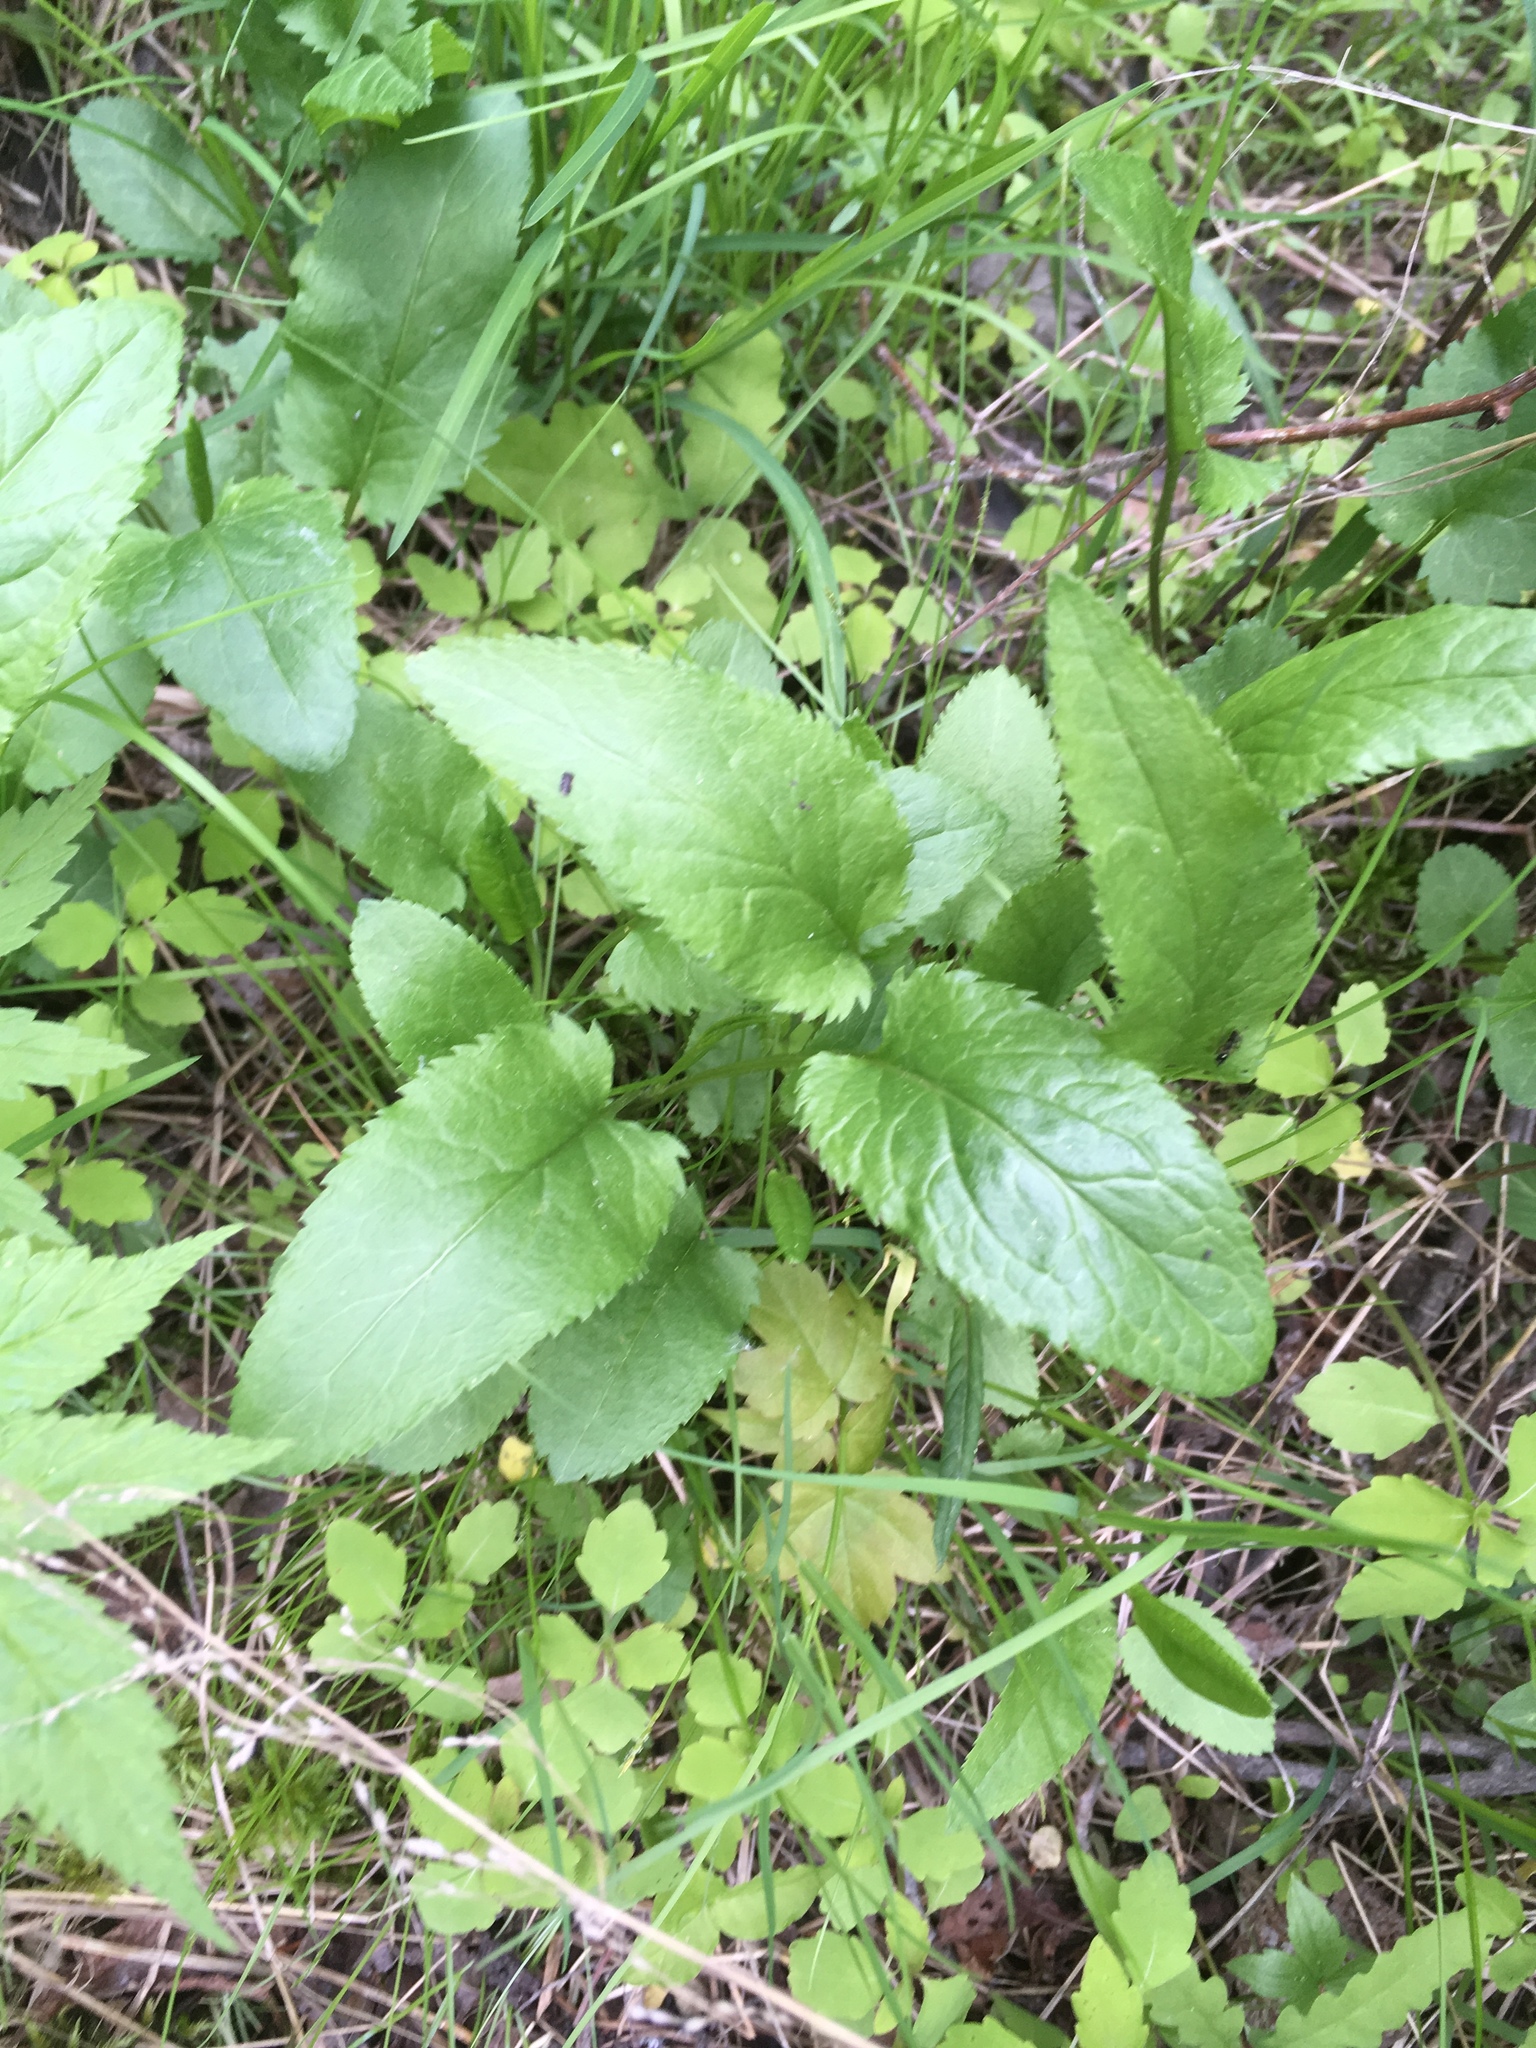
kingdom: Plantae
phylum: Tracheophyta
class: Magnoliopsida
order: Asterales
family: Asteraceae
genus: Packera
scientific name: Packera schweinitziana
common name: Schweinitz's ragwort
